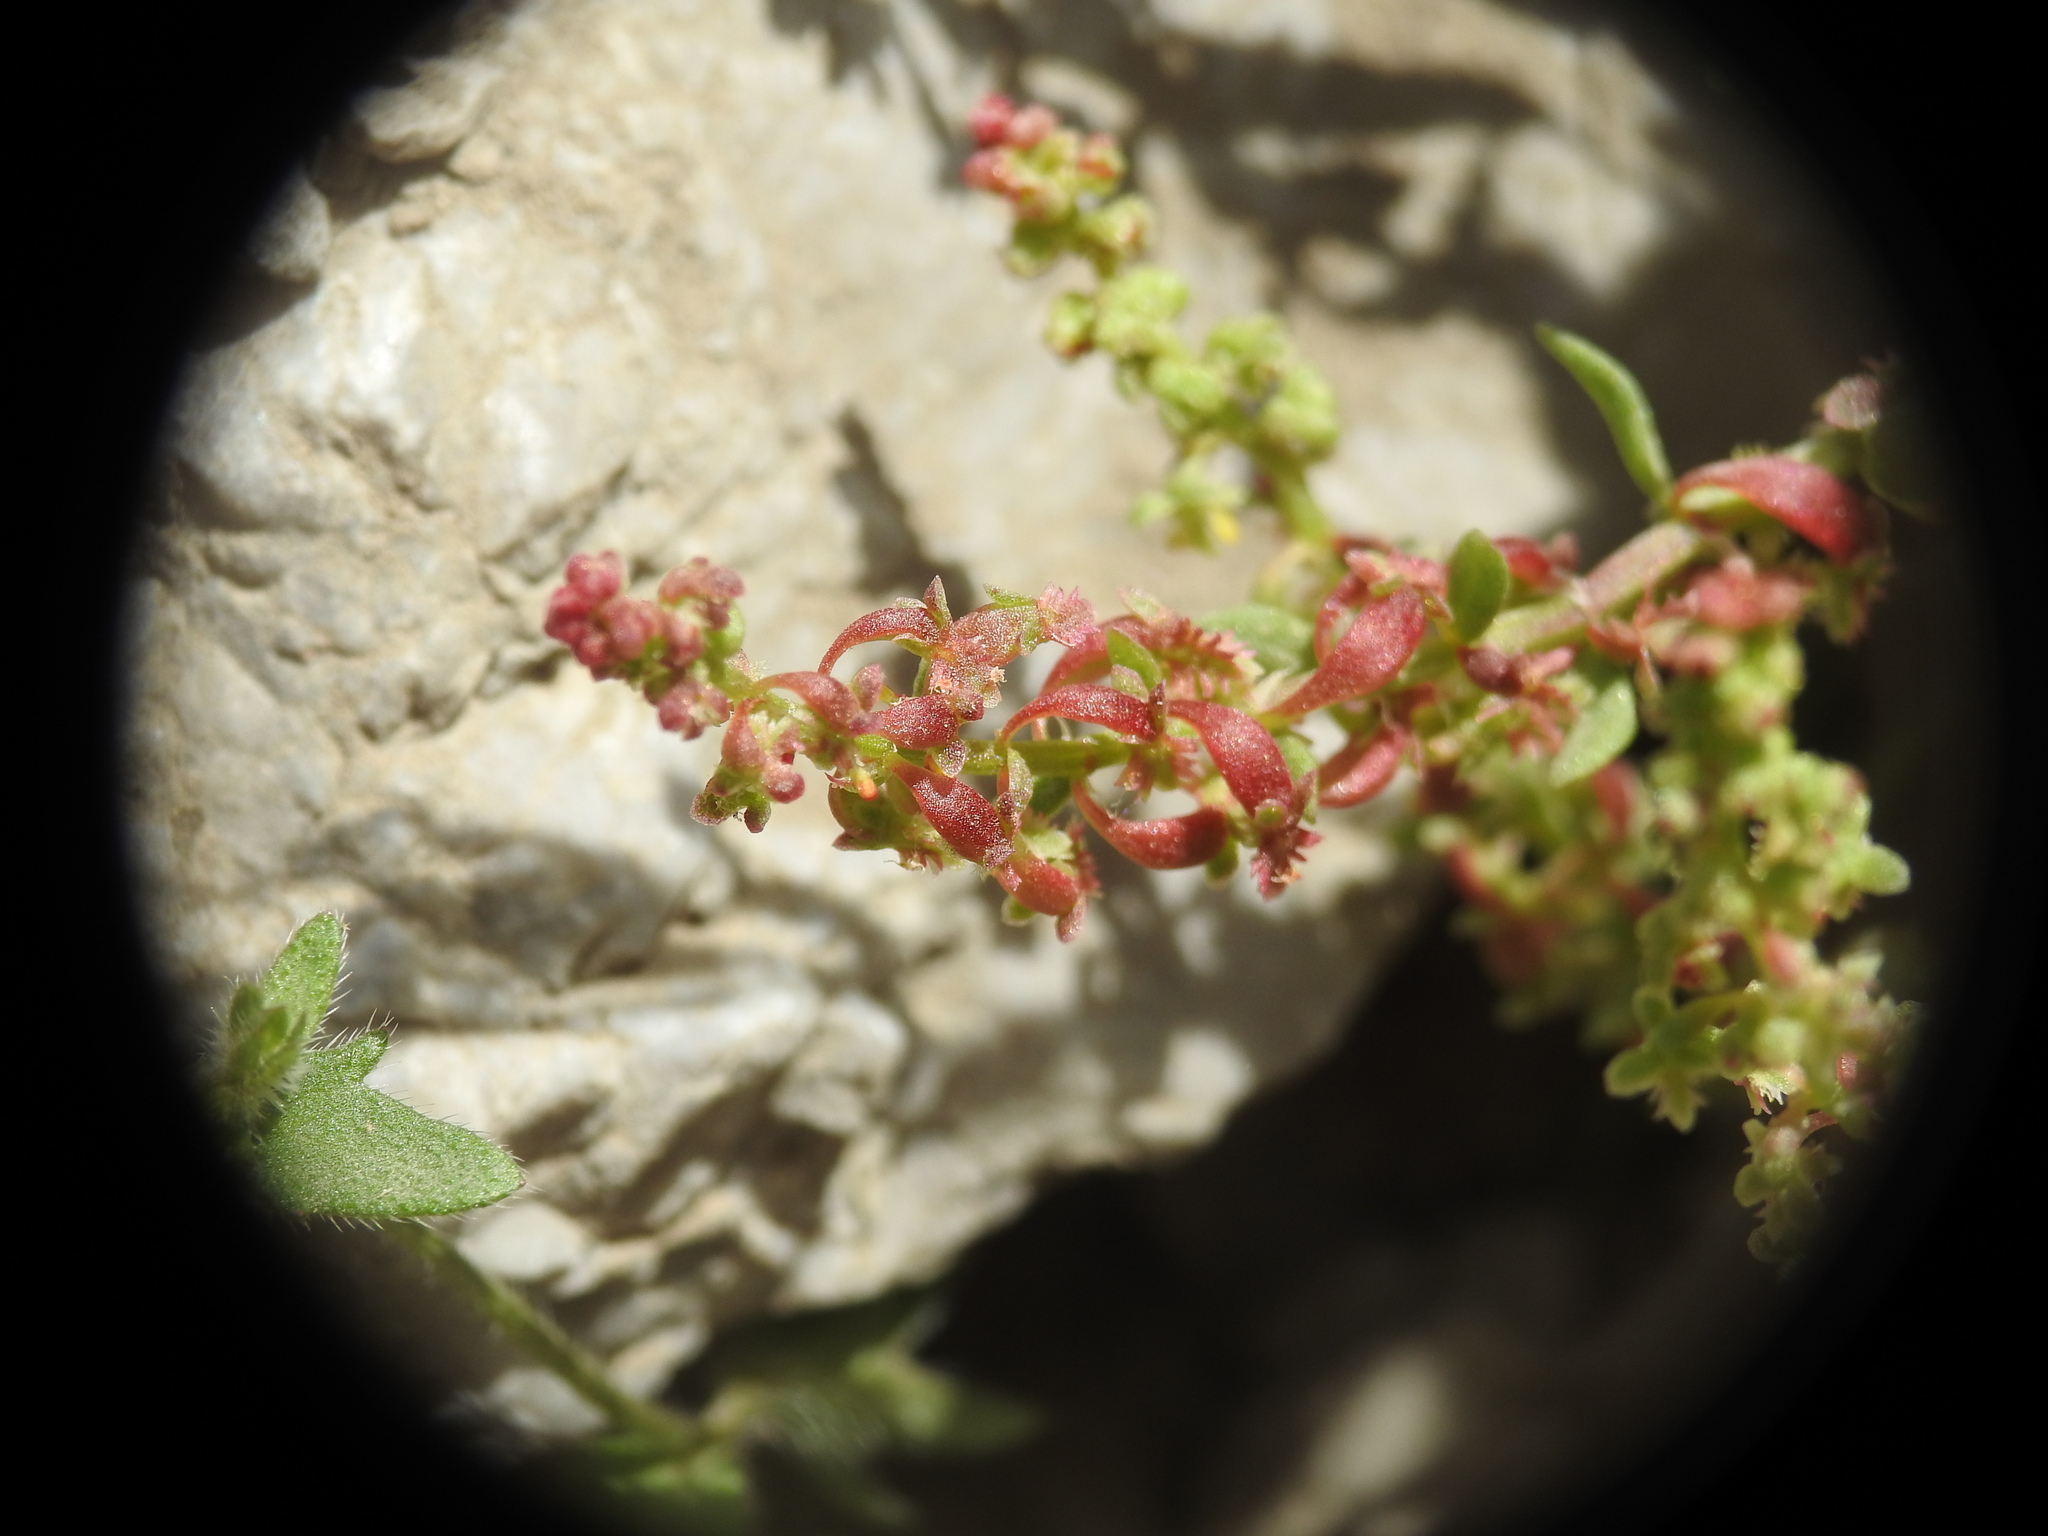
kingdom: Plantae
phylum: Tracheophyta
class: Magnoliopsida
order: Caryophyllales
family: Polygonaceae
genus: Rumex
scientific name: Rumex bucephalophorus
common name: Red dock
